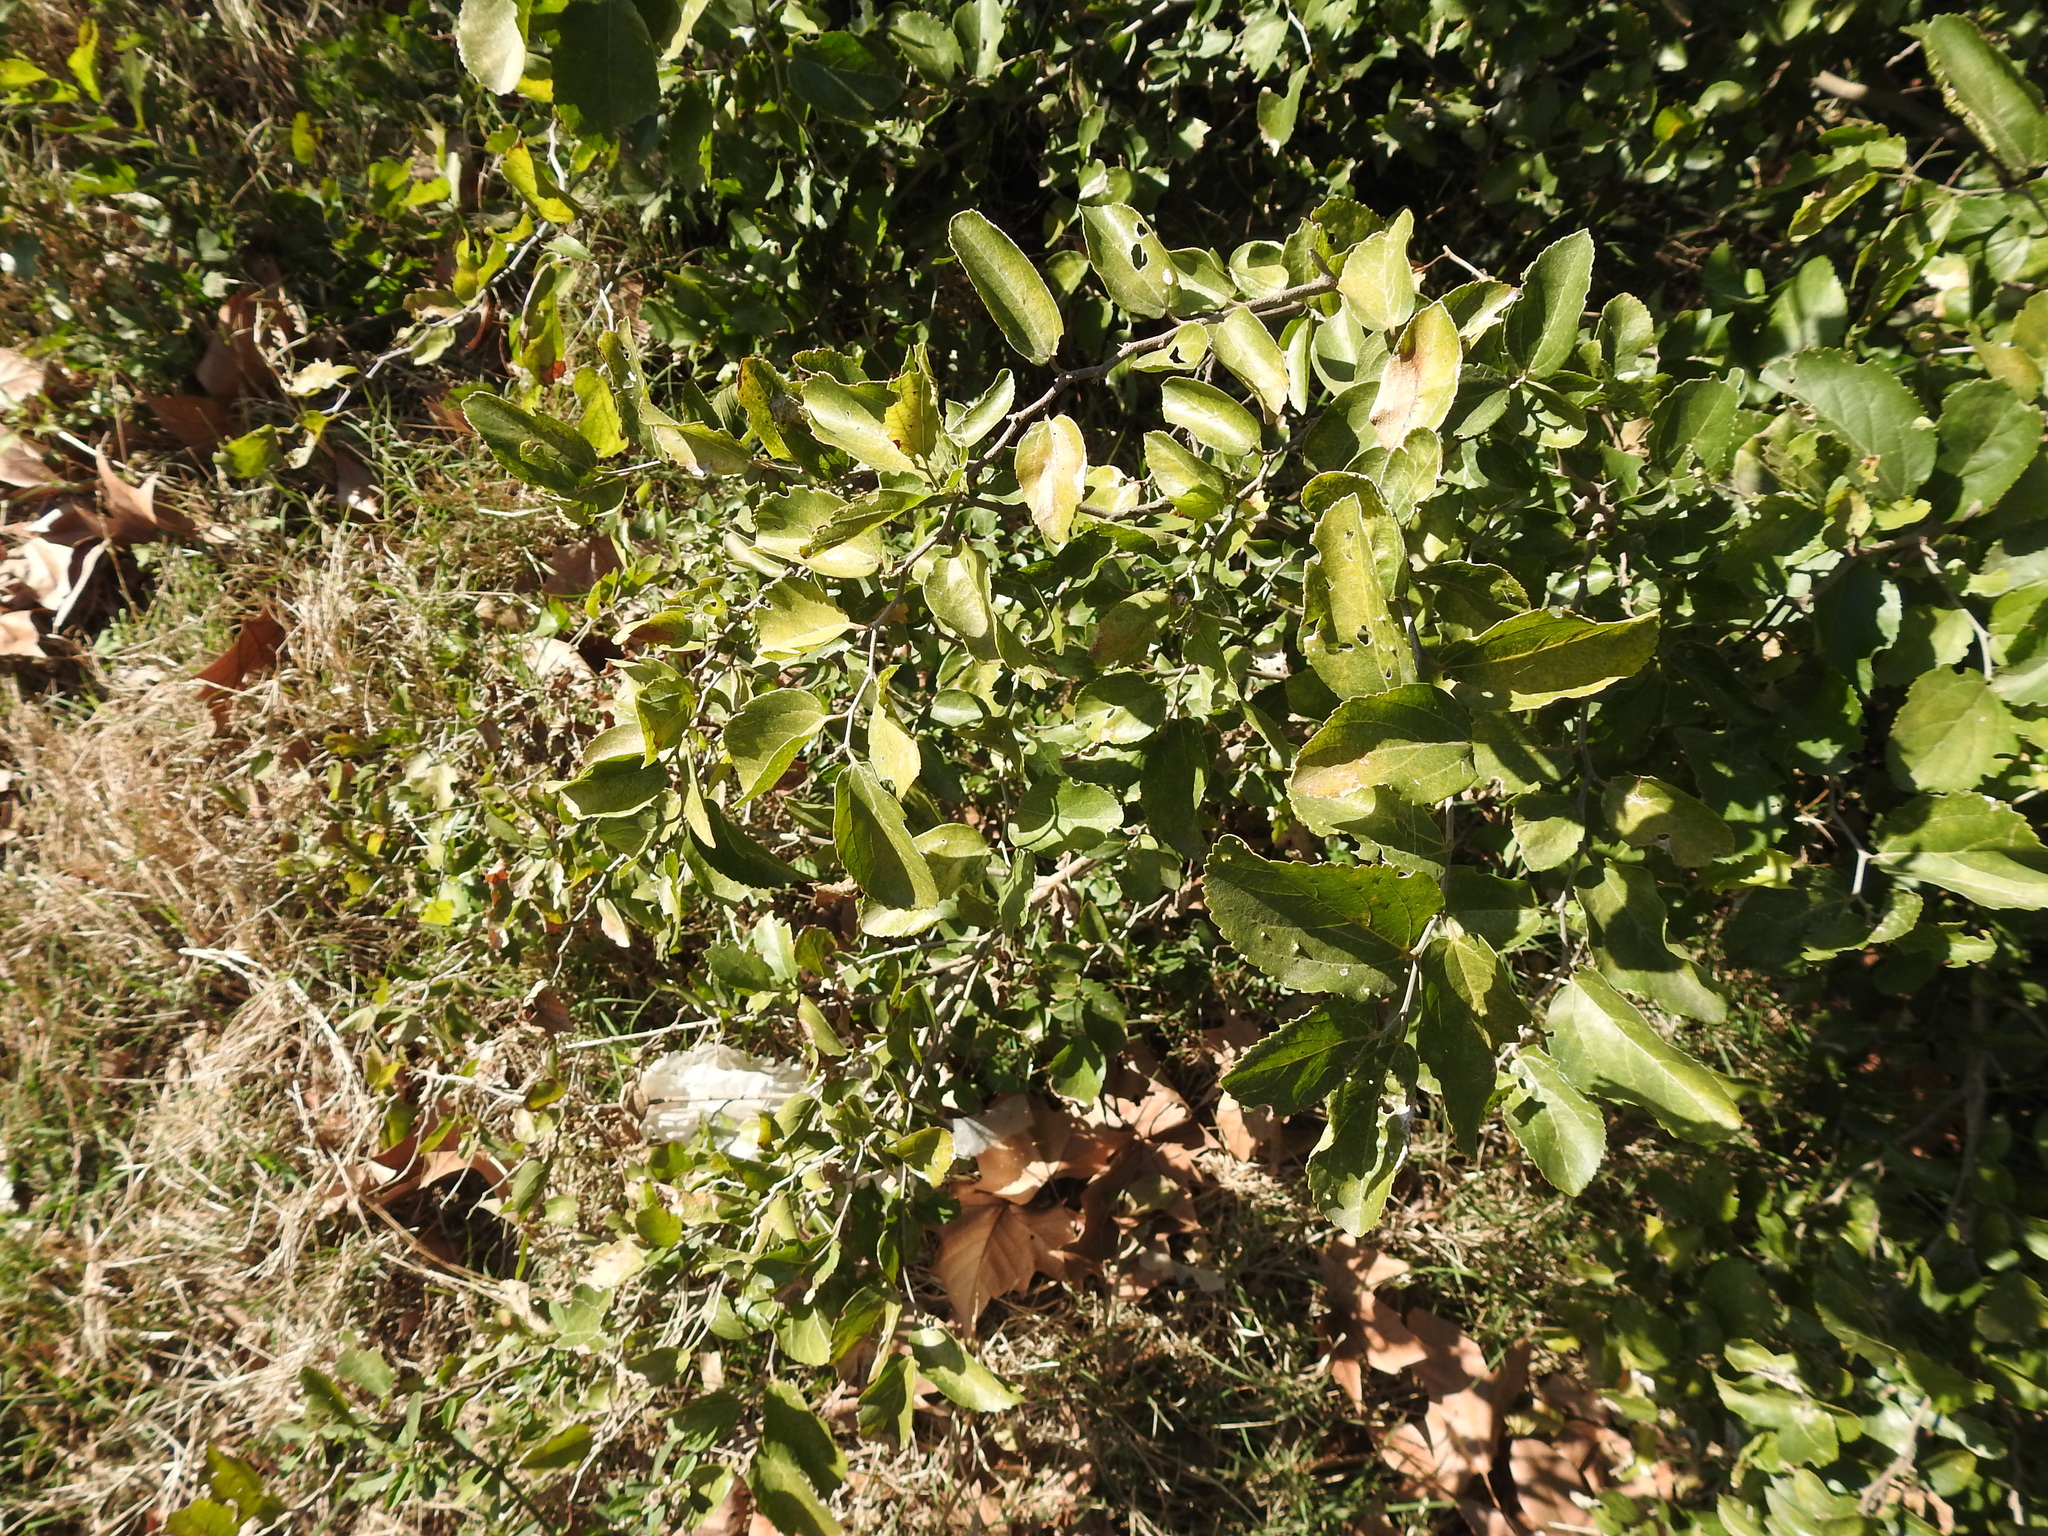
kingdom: Plantae
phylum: Tracheophyta
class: Magnoliopsida
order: Rosales
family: Cannabaceae
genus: Celtis
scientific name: Celtis iguanaea
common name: Iguana hackberry
